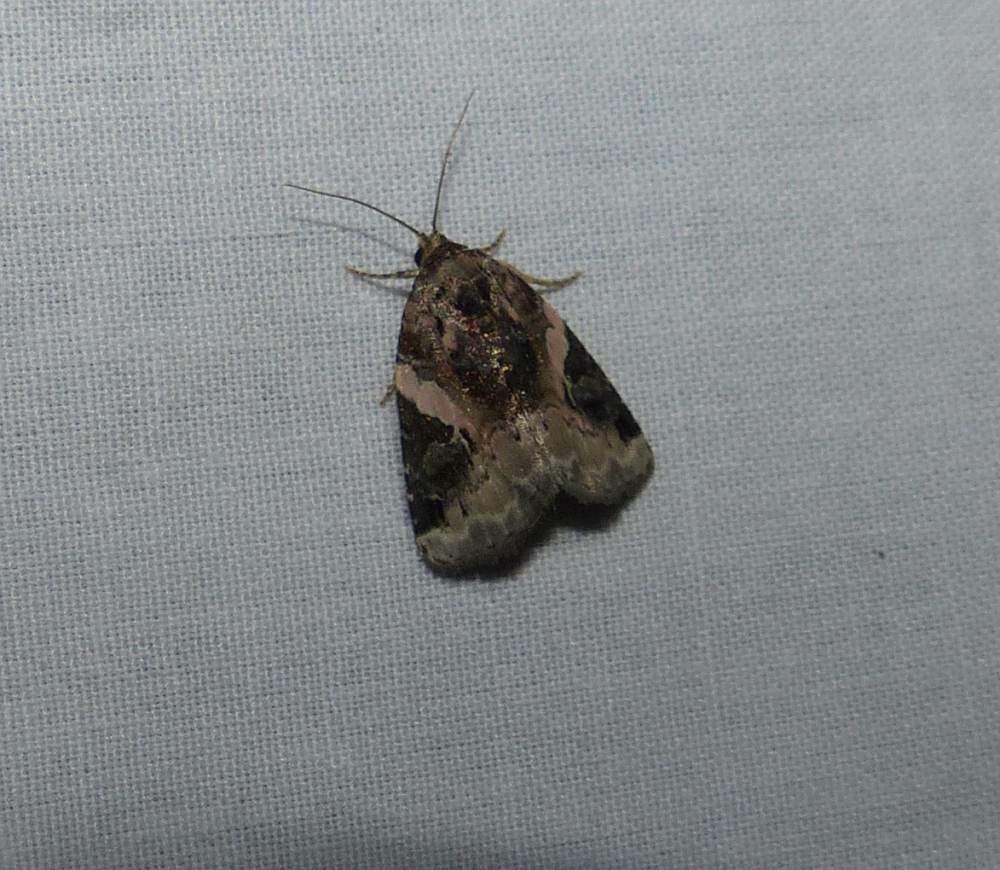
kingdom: Animalia
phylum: Arthropoda
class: Insecta
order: Lepidoptera
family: Noctuidae
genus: Pseudeustrotia
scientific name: Pseudeustrotia carneola
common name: Pink-barred lithacodia moth
